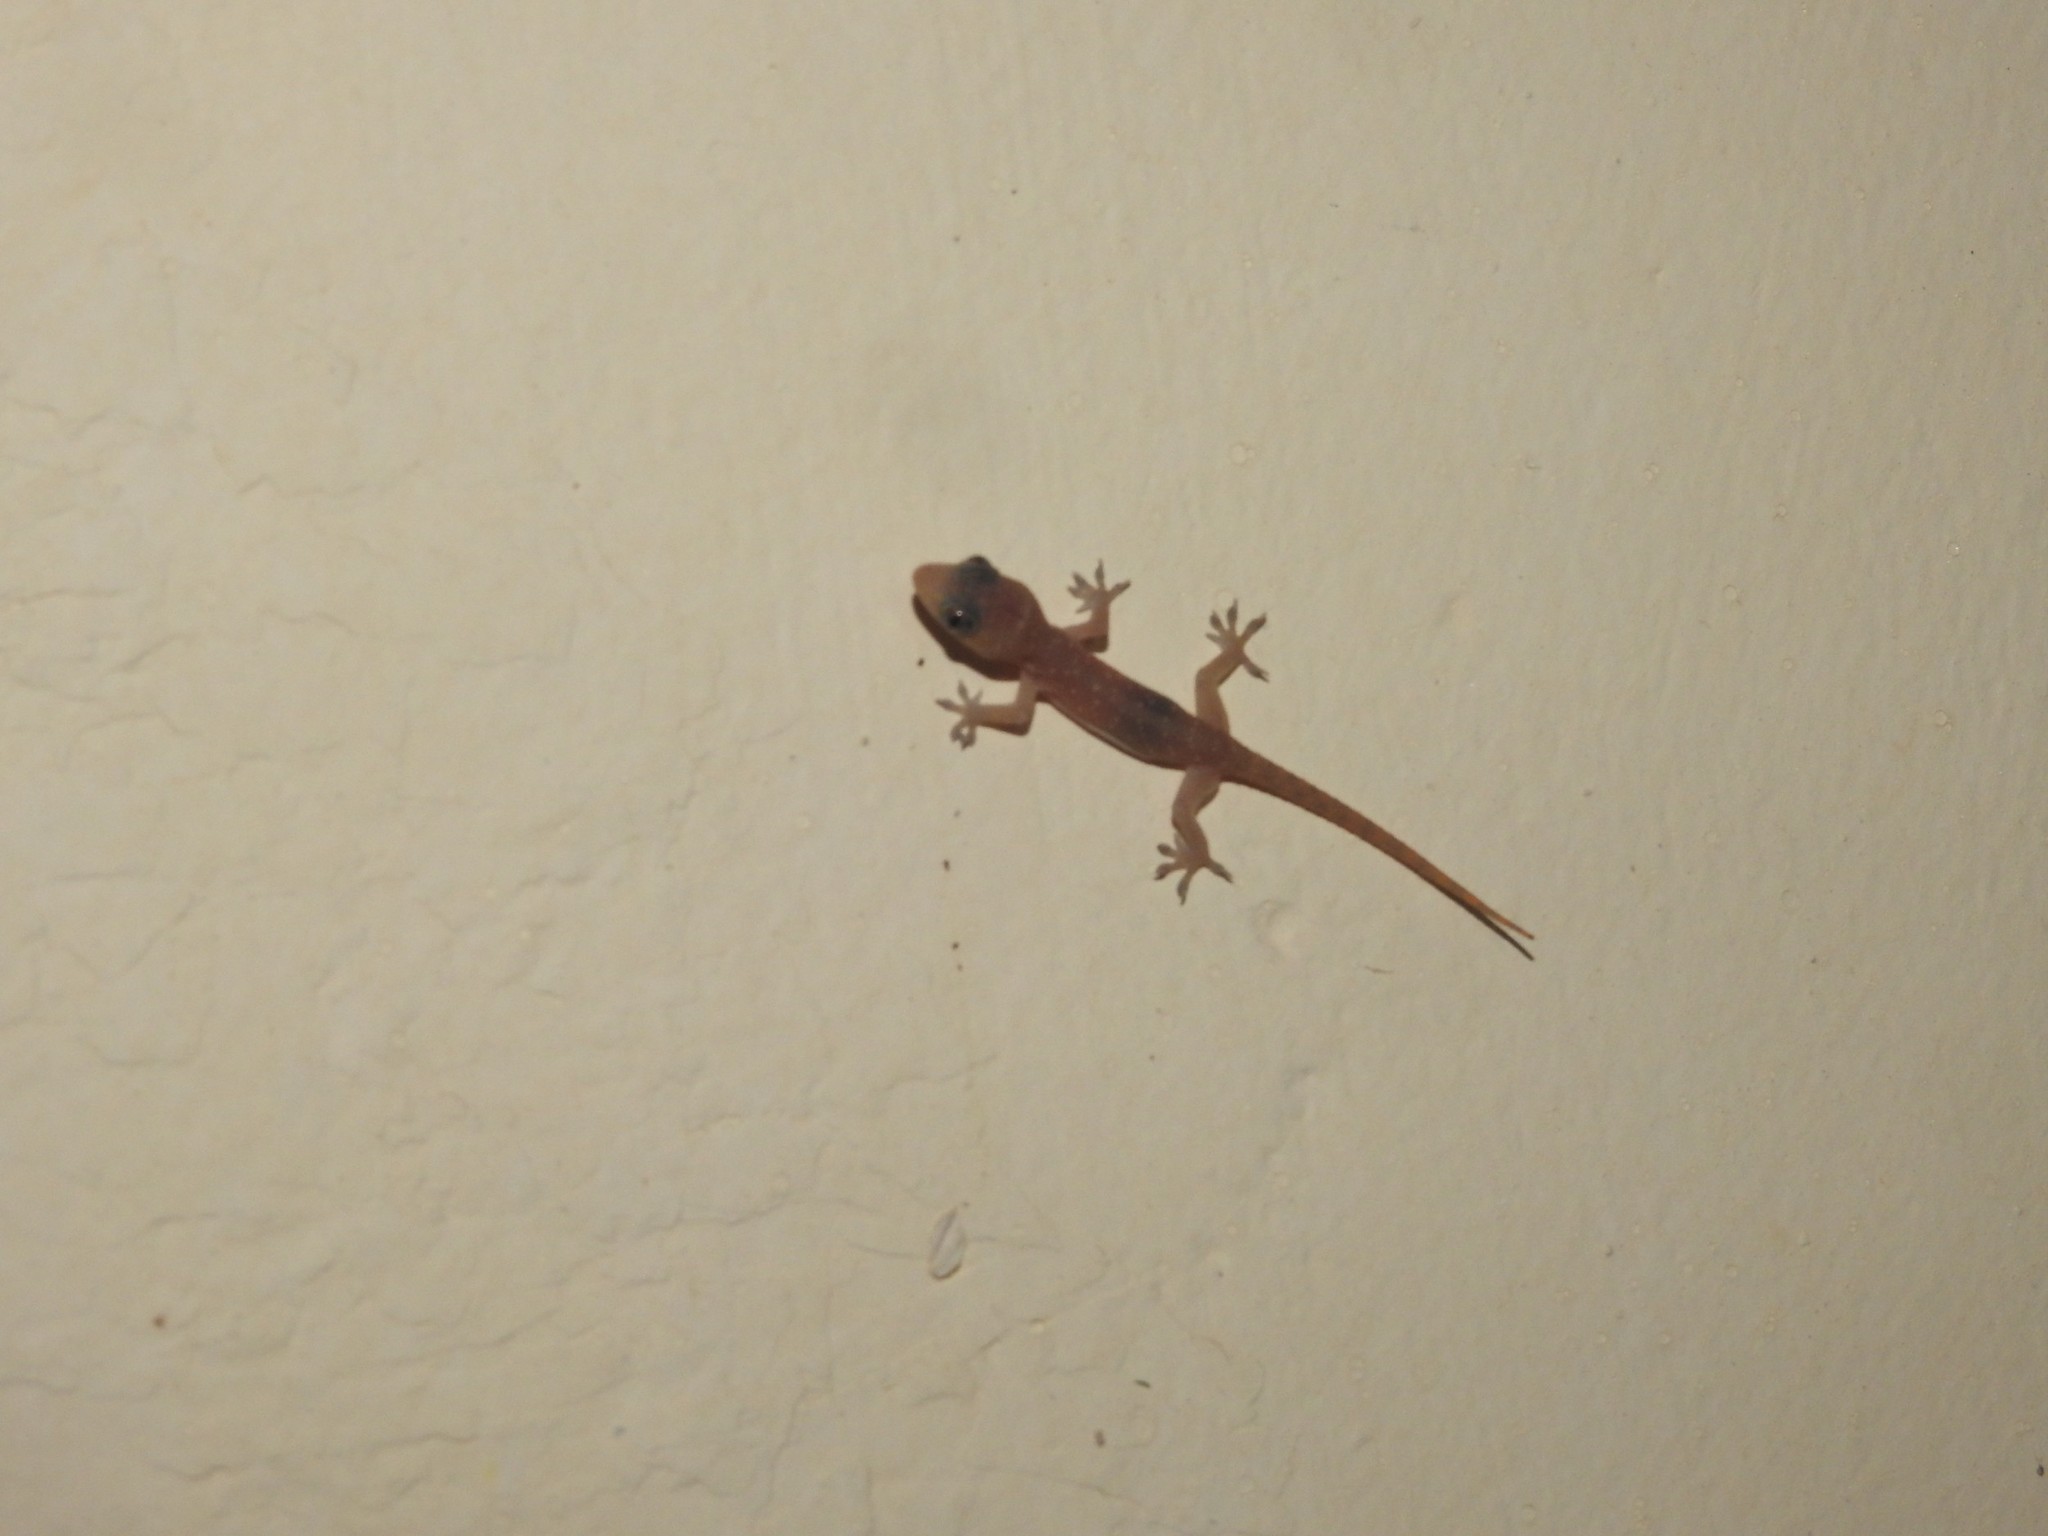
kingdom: Animalia
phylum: Chordata
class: Squamata
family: Gekkonidae
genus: Hemidactylus
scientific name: Hemidactylus frenatus
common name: Common house gecko
